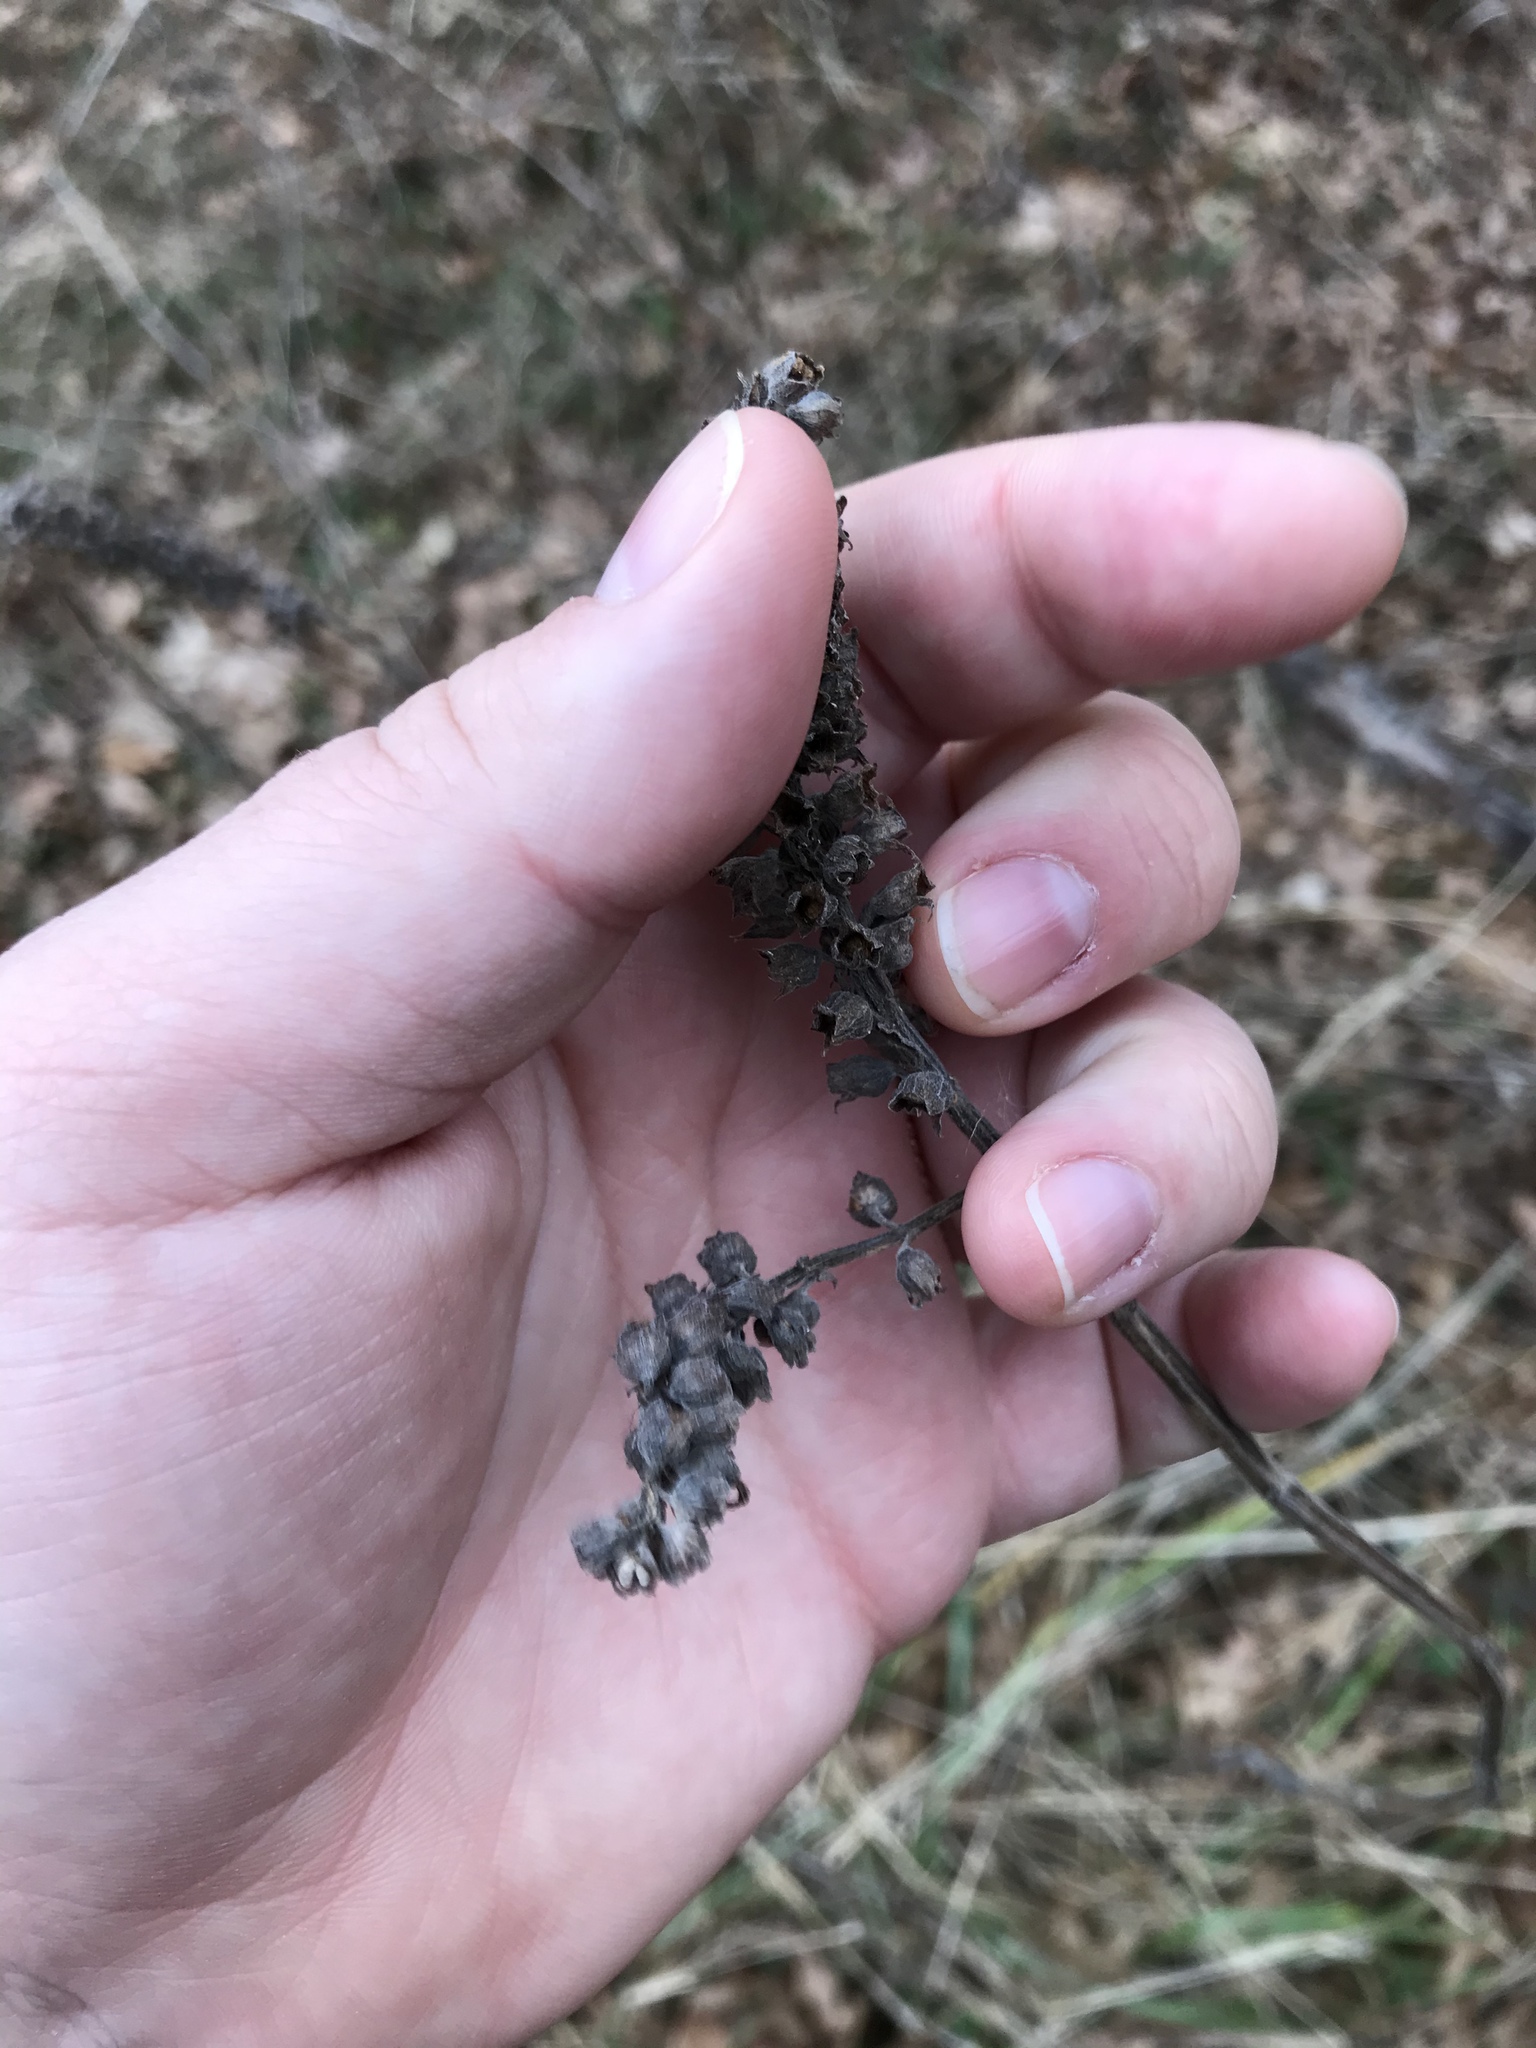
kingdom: Plantae
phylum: Tracheophyta
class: Magnoliopsida
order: Lamiales
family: Lamiaceae
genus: Teucrium
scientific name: Teucrium canadense
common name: American germander
